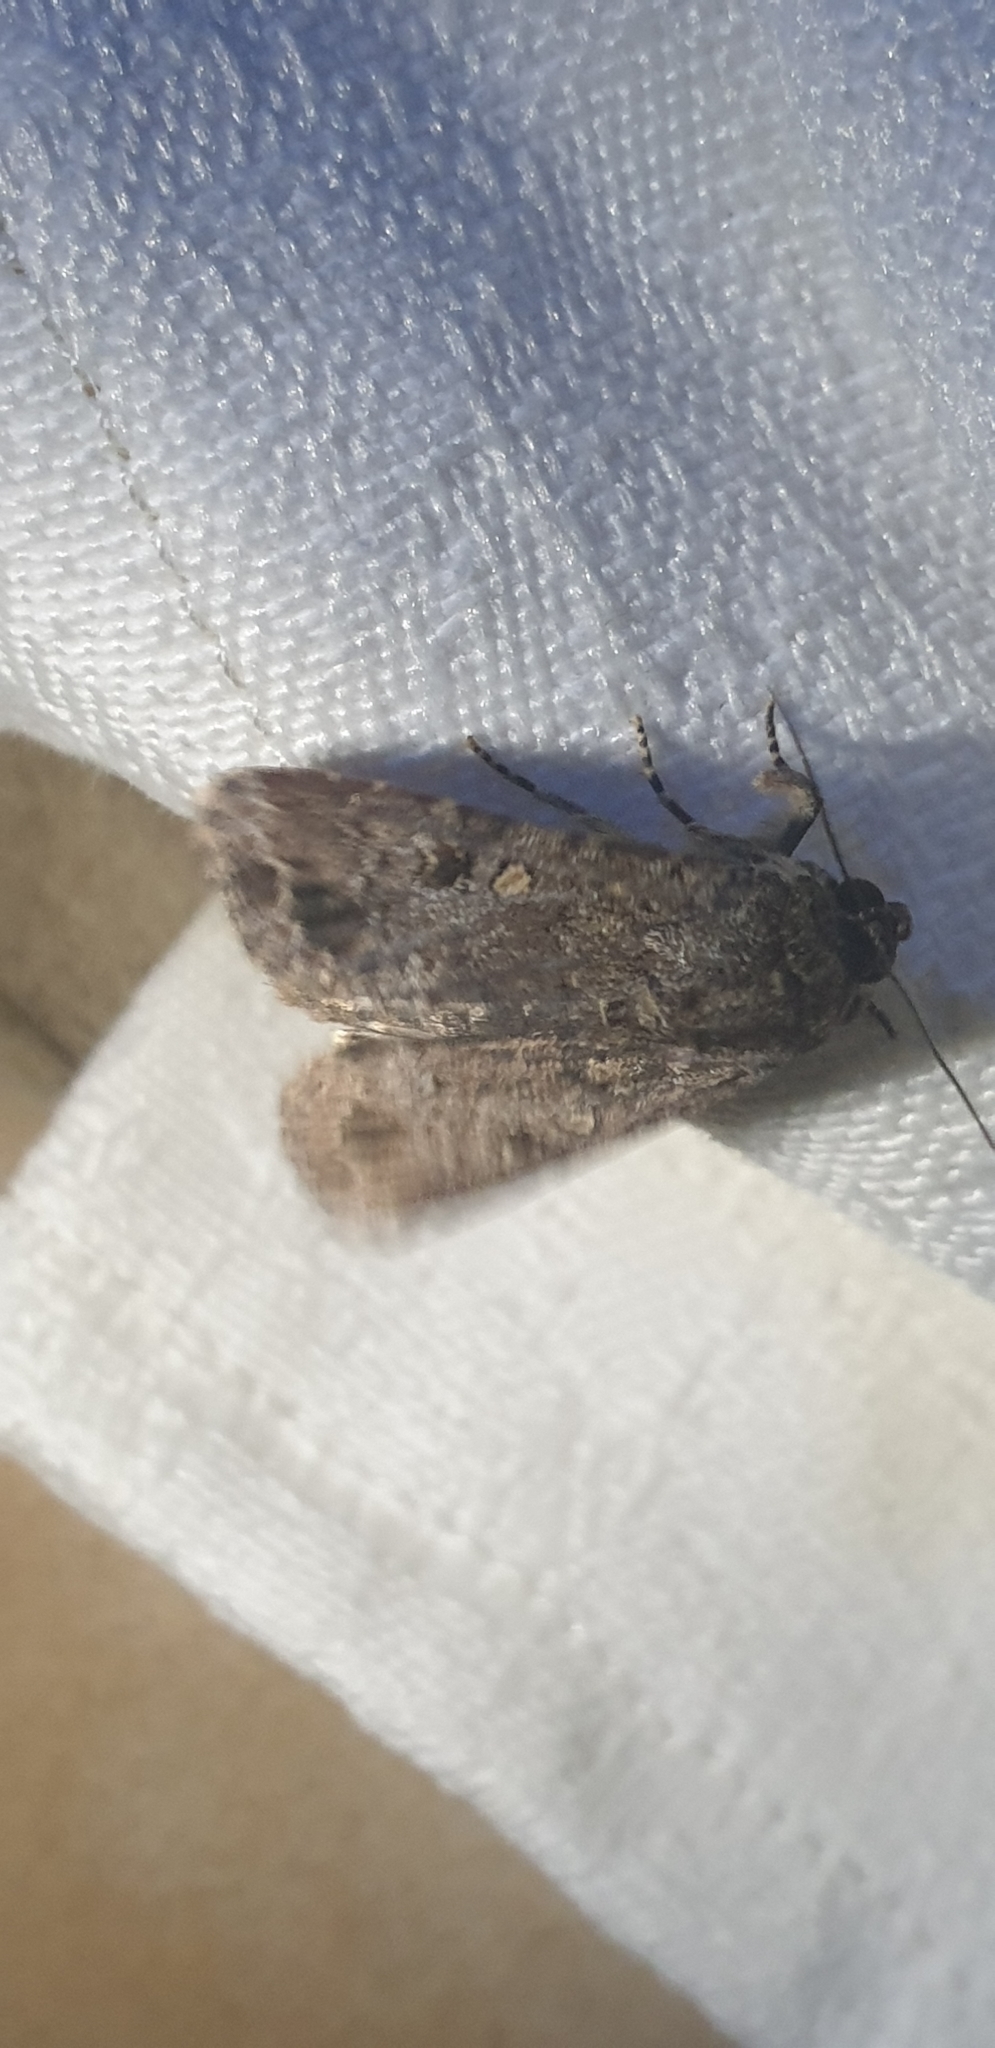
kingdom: Animalia
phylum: Arthropoda
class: Insecta
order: Lepidoptera
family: Noctuidae
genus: Spodoptera
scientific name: Spodoptera mauritia
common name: Lawn armyworm
